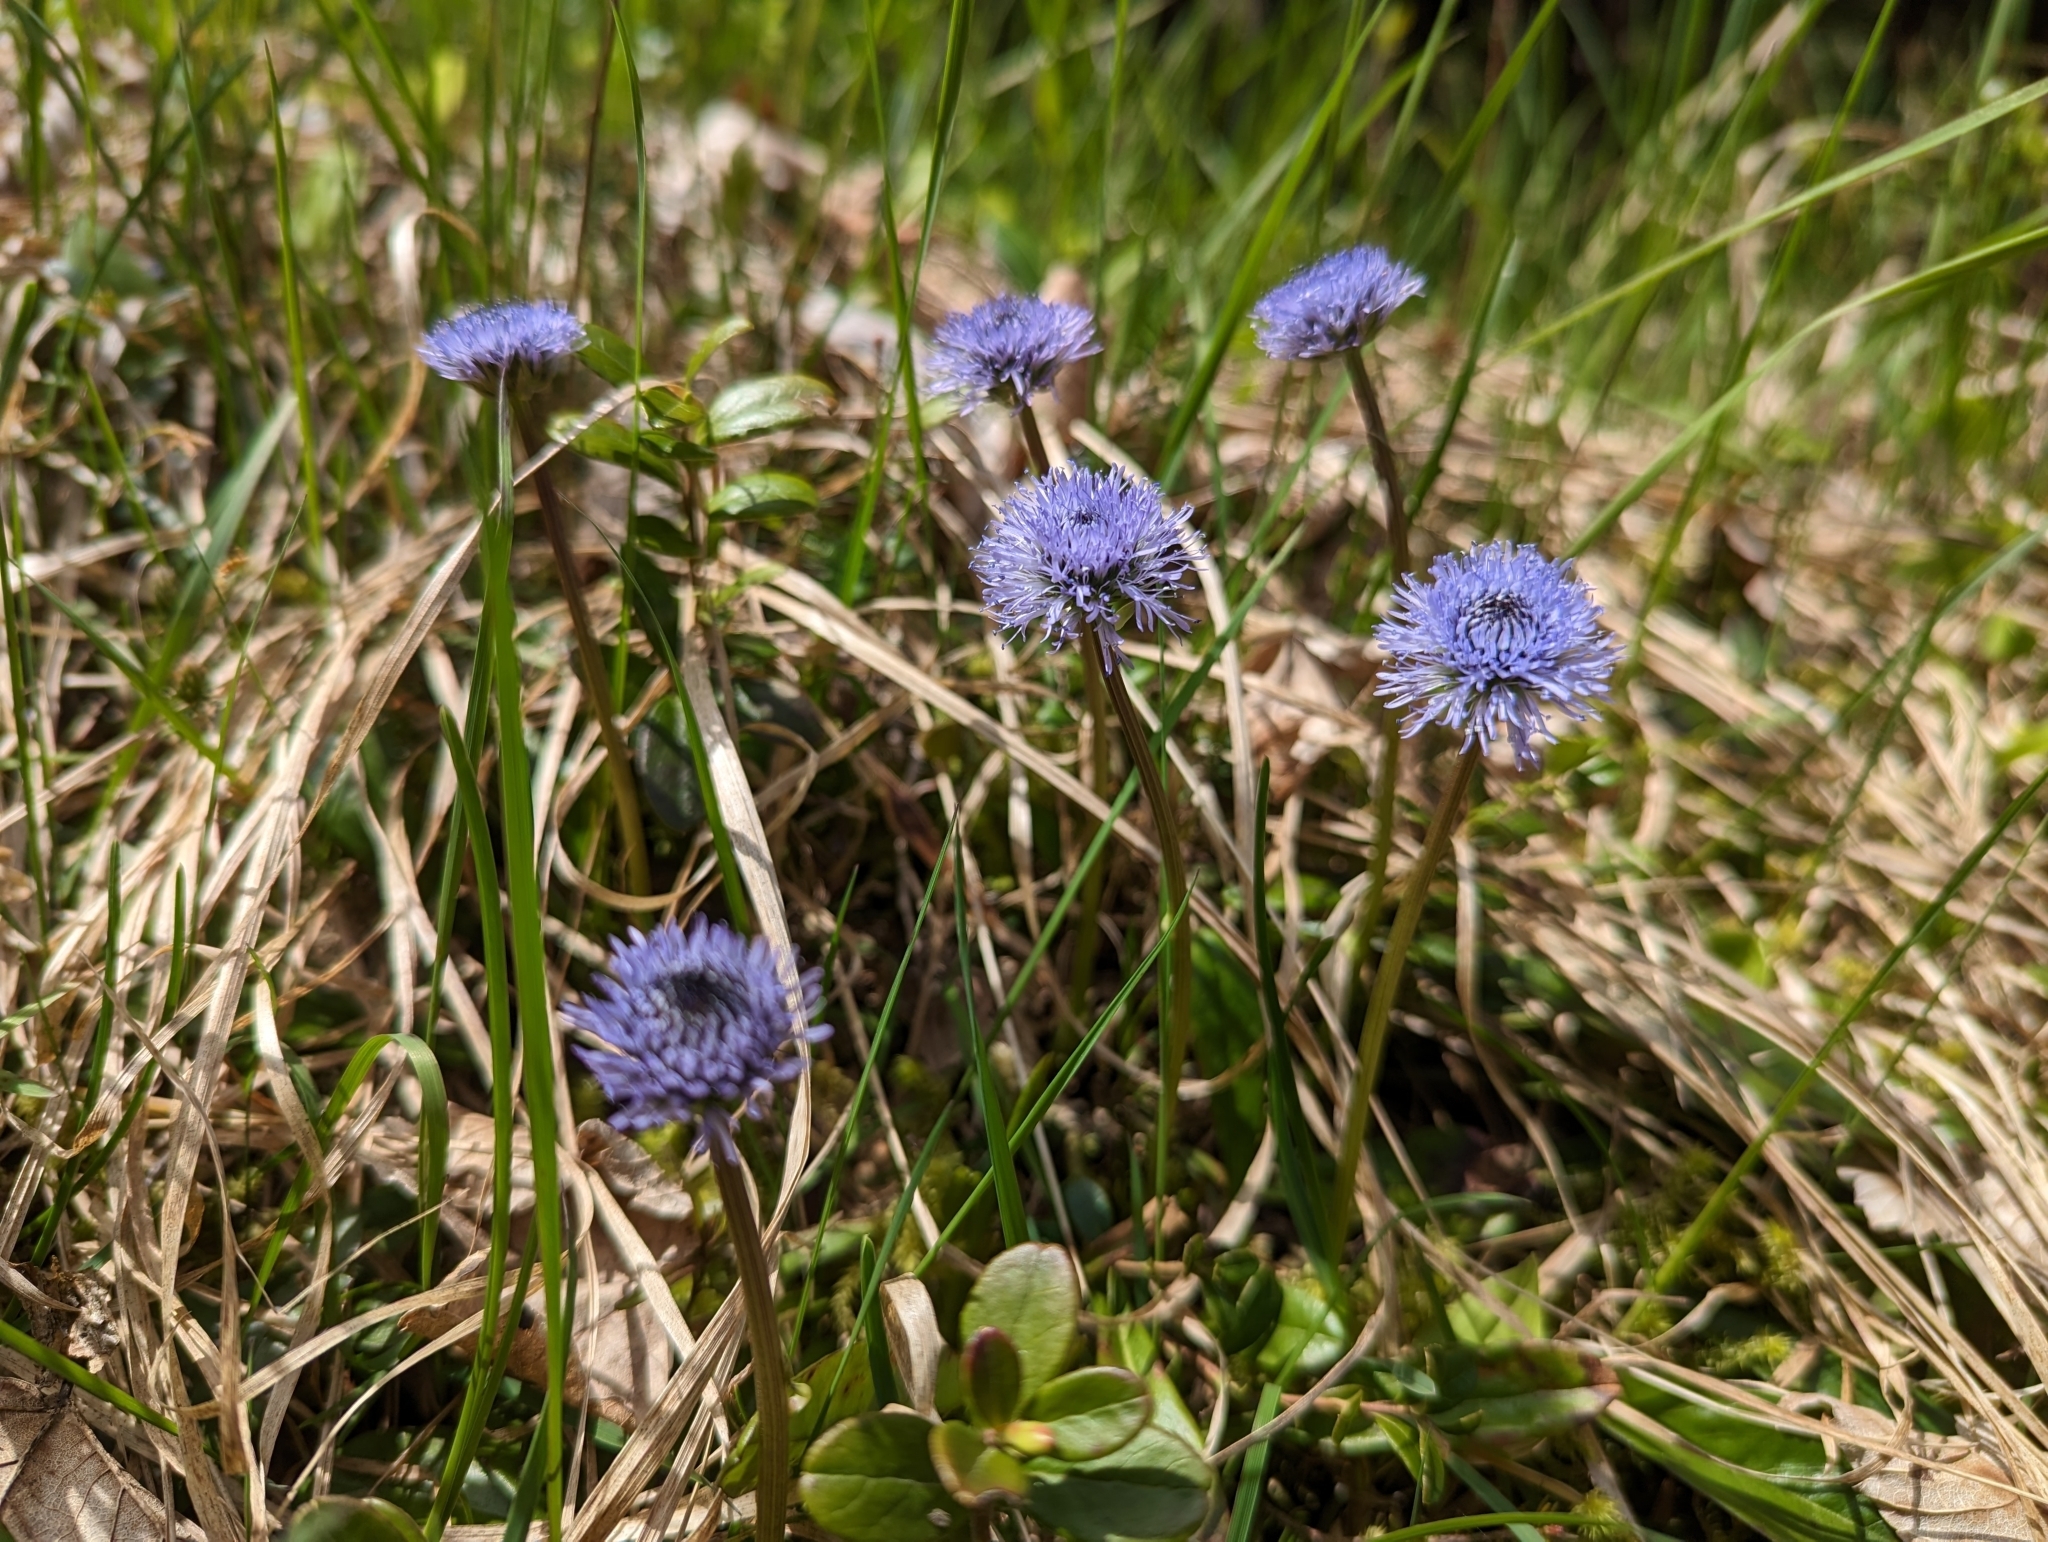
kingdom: Plantae
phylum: Tracheophyta
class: Magnoliopsida
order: Lamiales
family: Plantaginaceae
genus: Globularia
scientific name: Globularia nudicaulis
